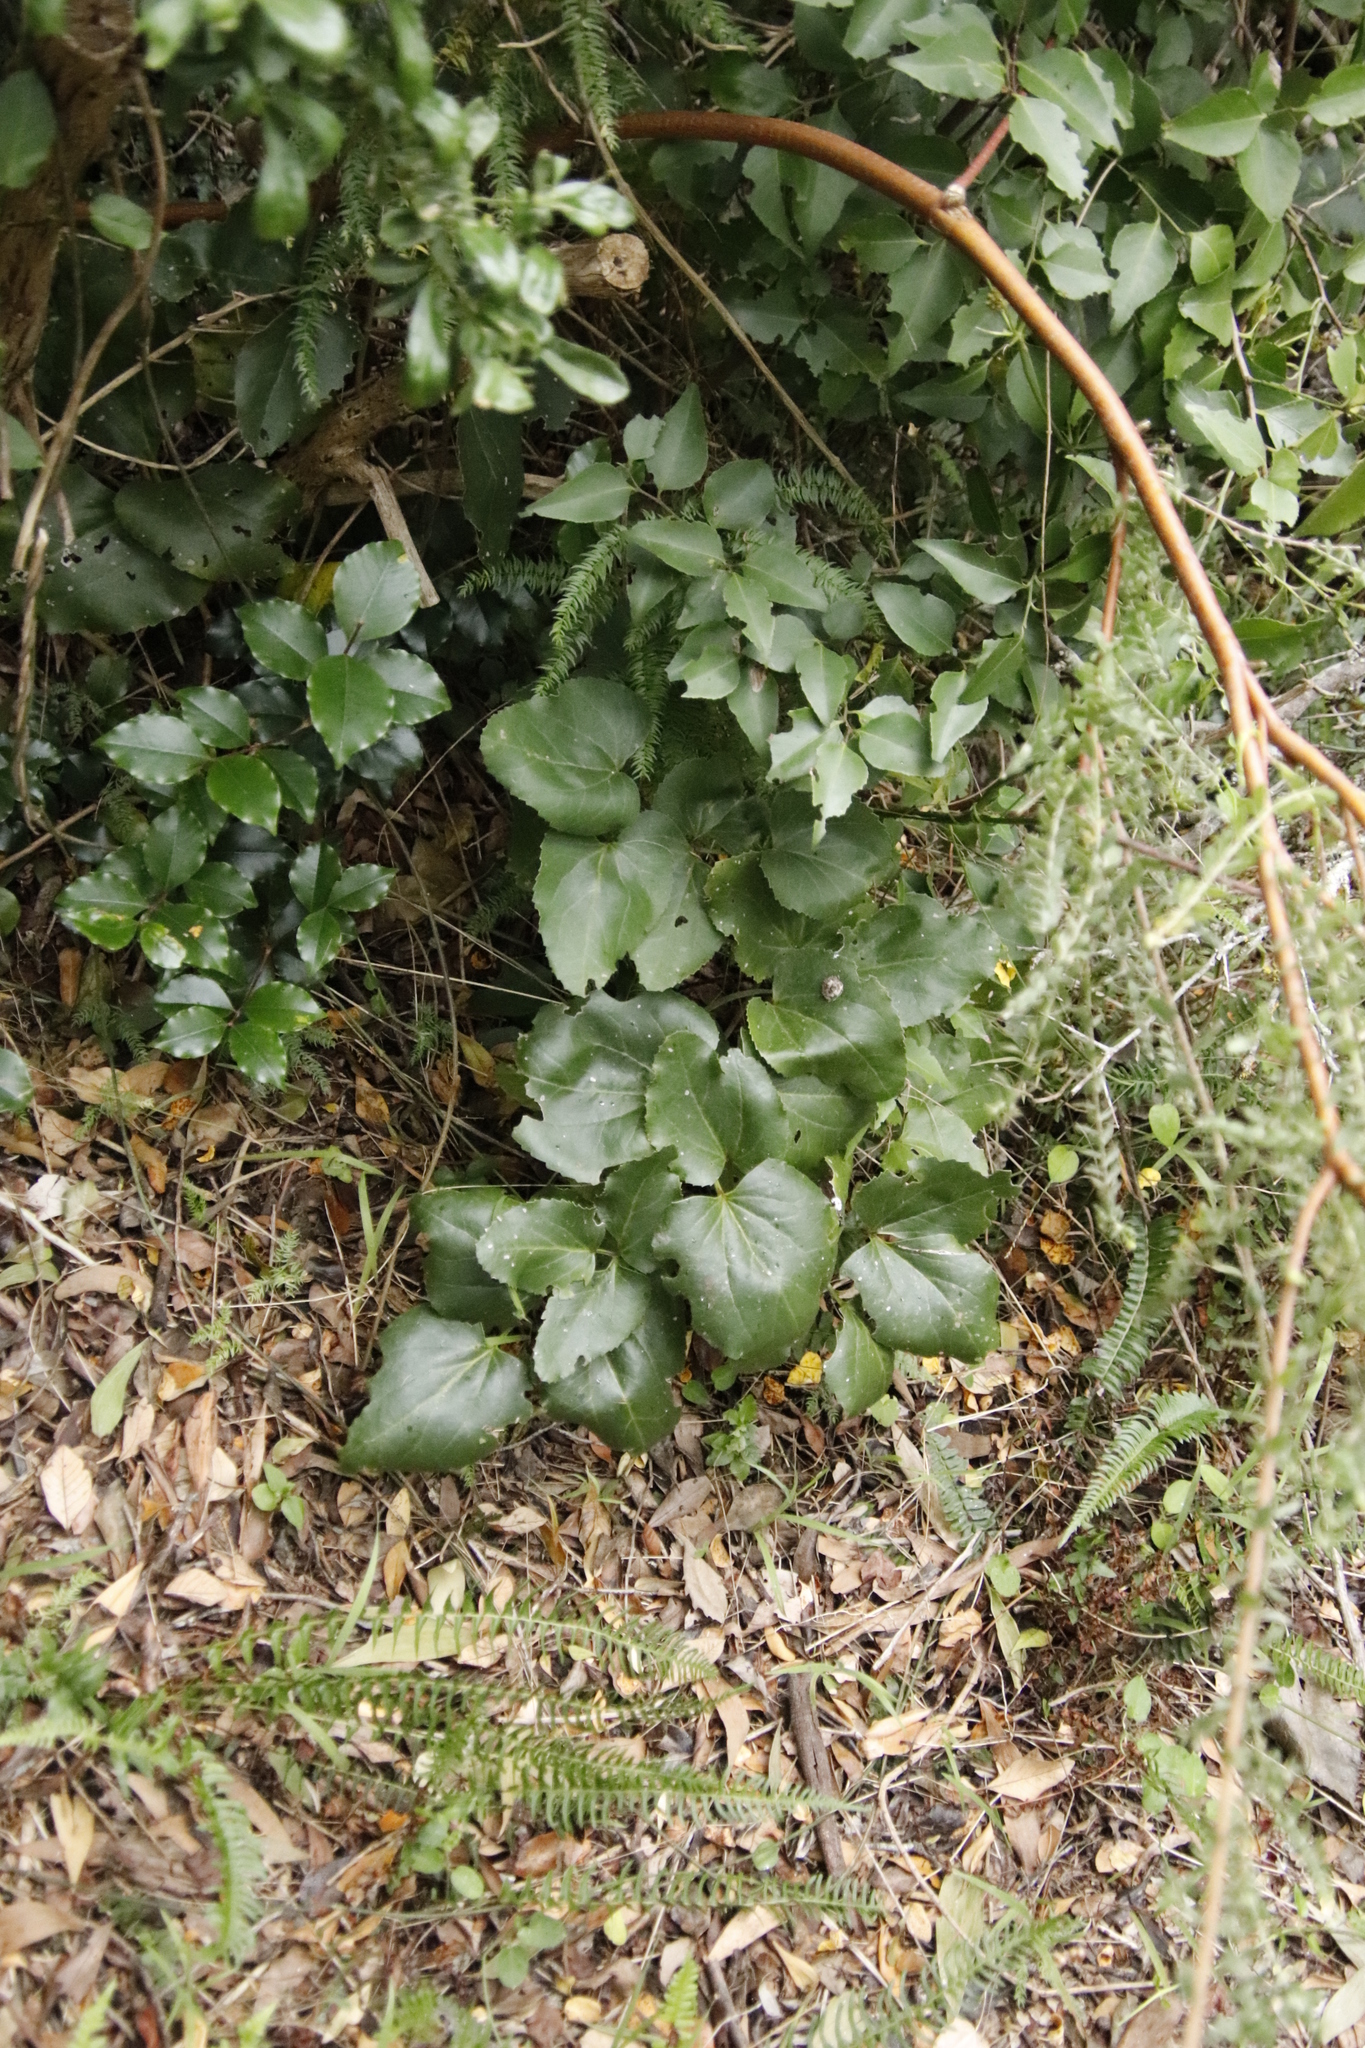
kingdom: Plantae
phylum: Tracheophyta
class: Magnoliopsida
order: Ranunculales
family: Ranunculaceae
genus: Knowltonia
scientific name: Knowltonia vesicatoria
